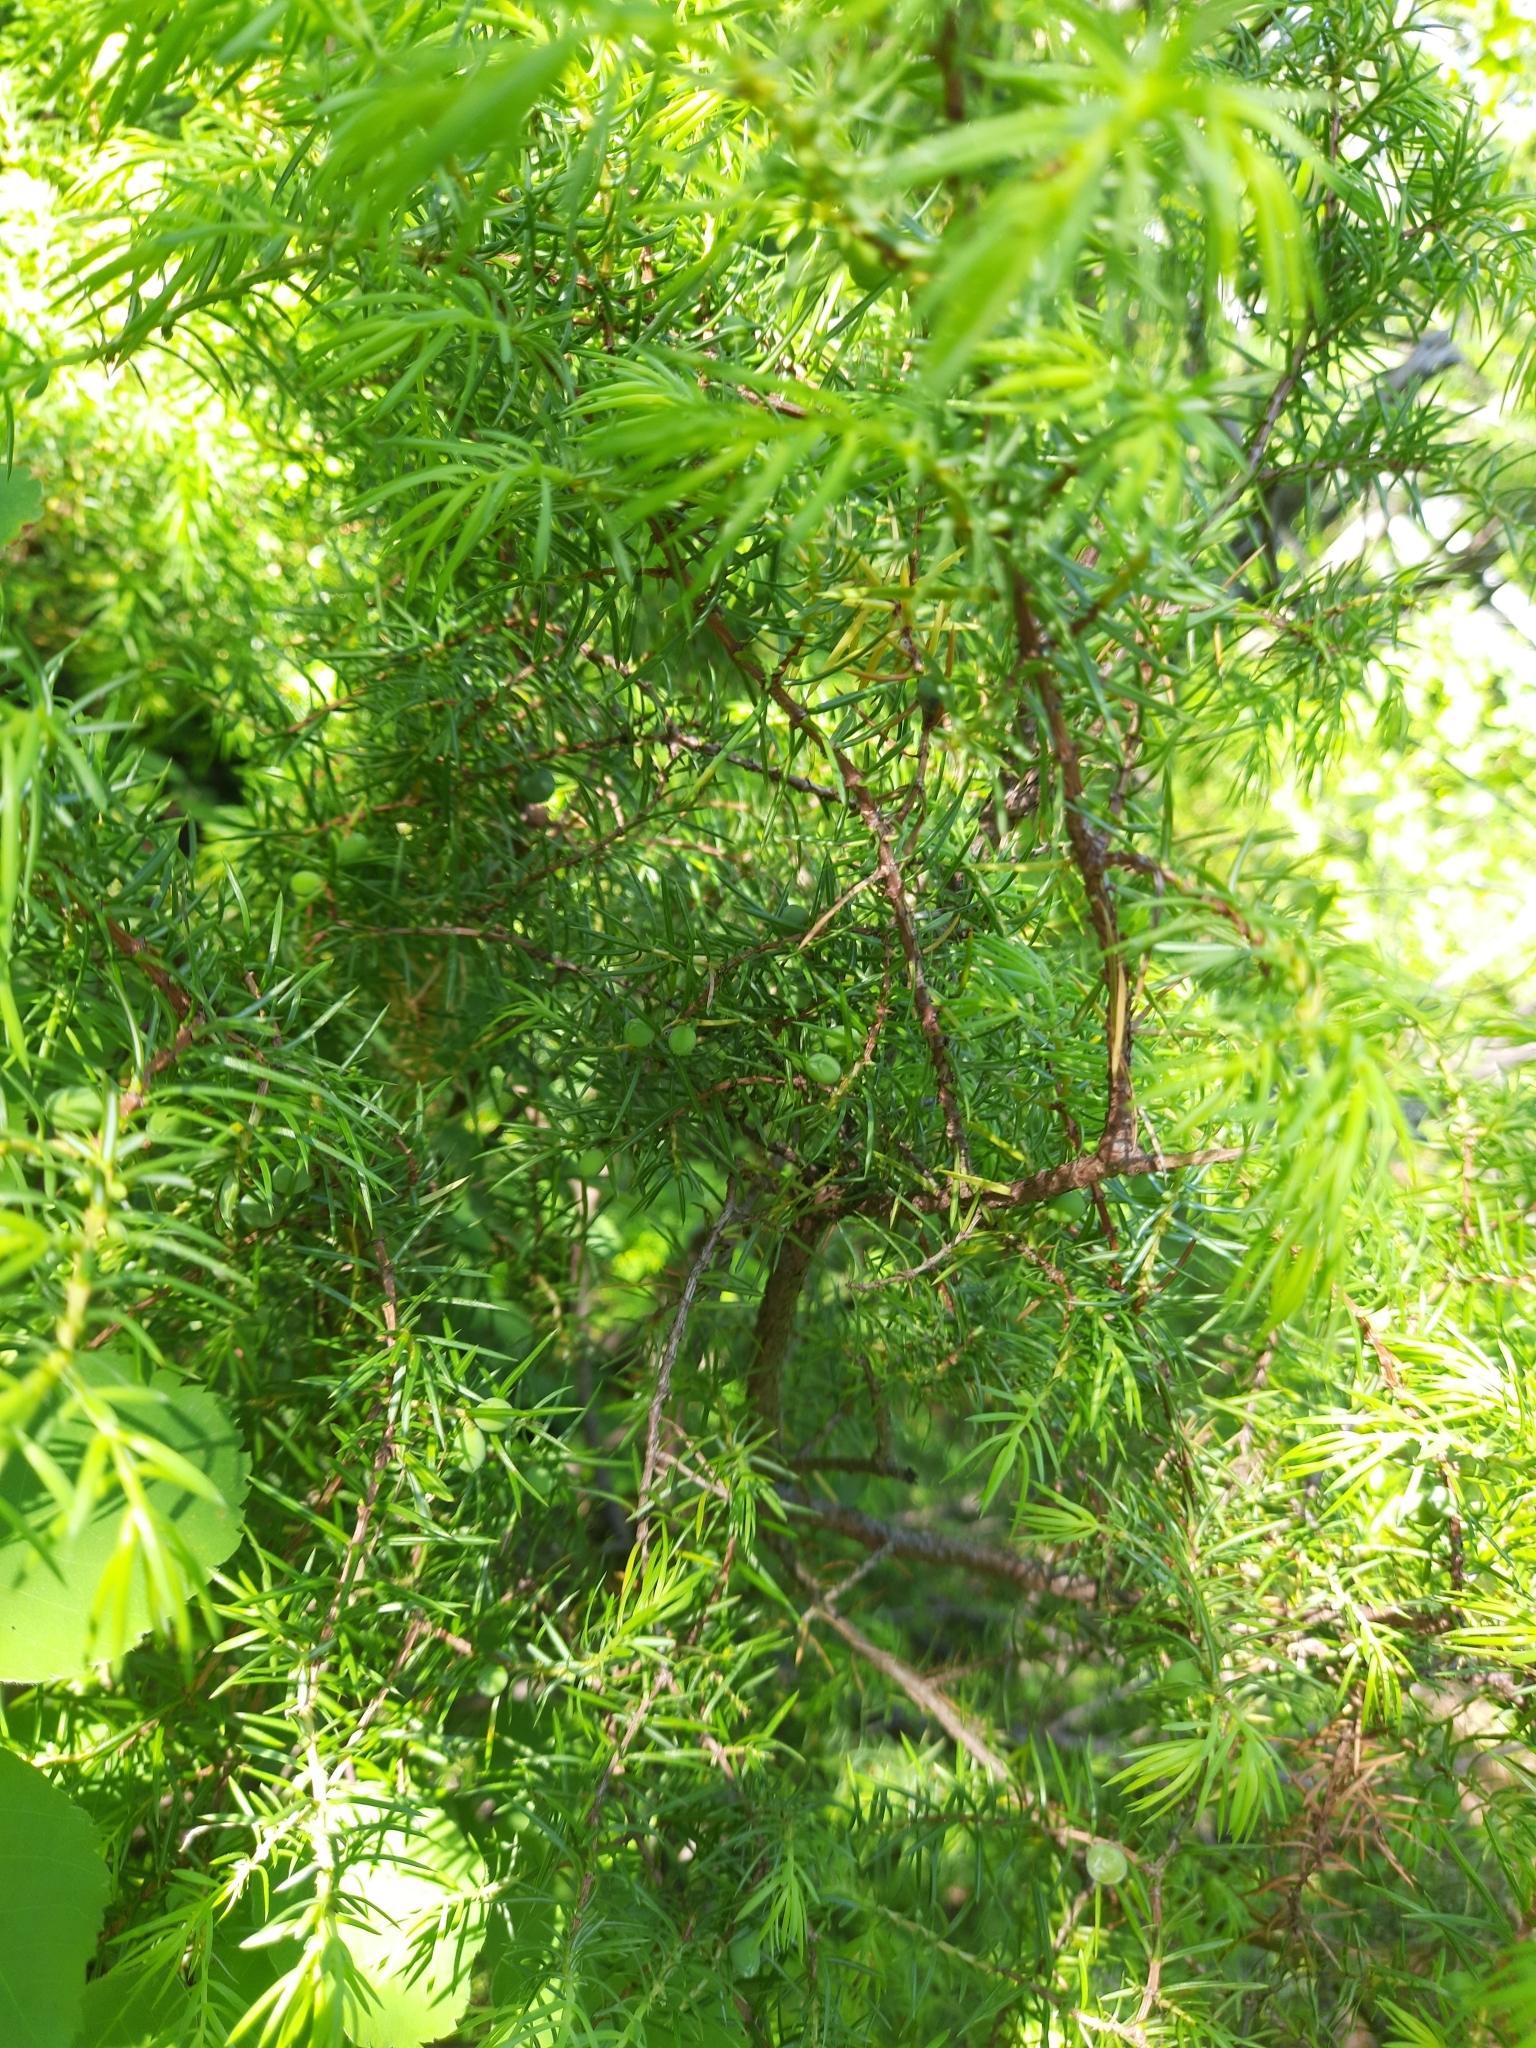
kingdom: Plantae
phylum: Tracheophyta
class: Pinopsida
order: Pinales
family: Cupressaceae
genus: Juniperus
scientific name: Juniperus communis
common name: Common juniper
